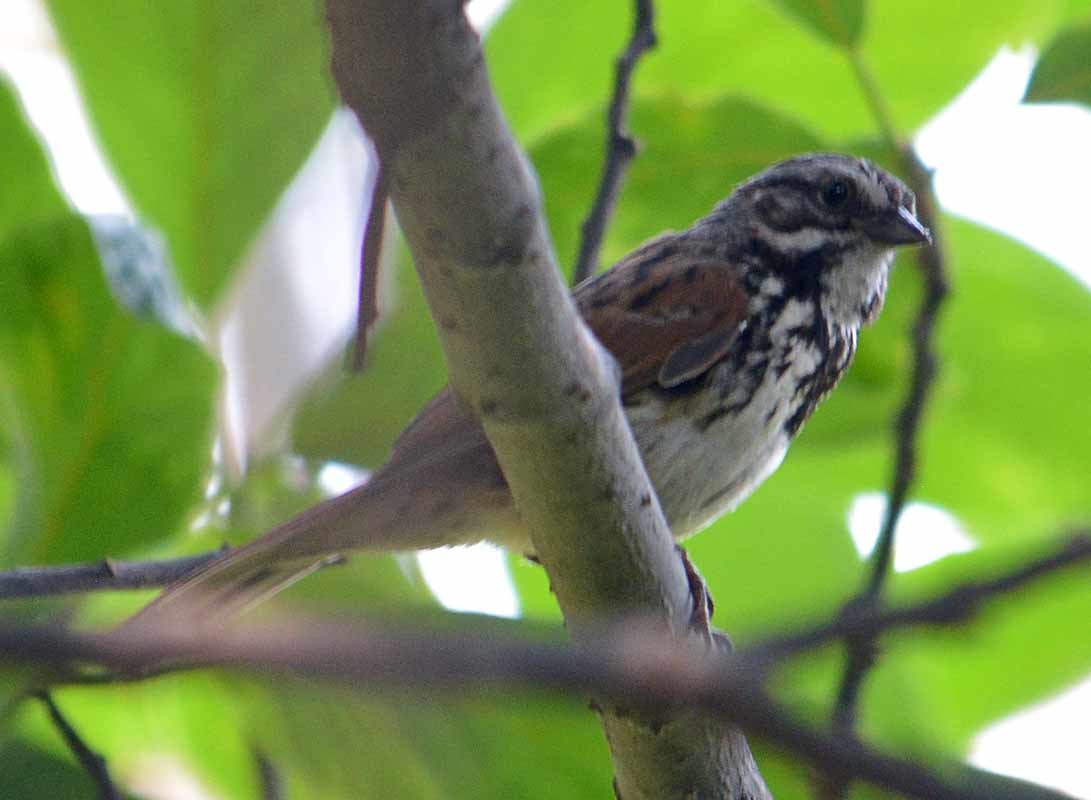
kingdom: Animalia
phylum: Chordata
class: Aves
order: Passeriformes
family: Passerellidae
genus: Melospiza
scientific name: Melospiza melodia
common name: Song sparrow
